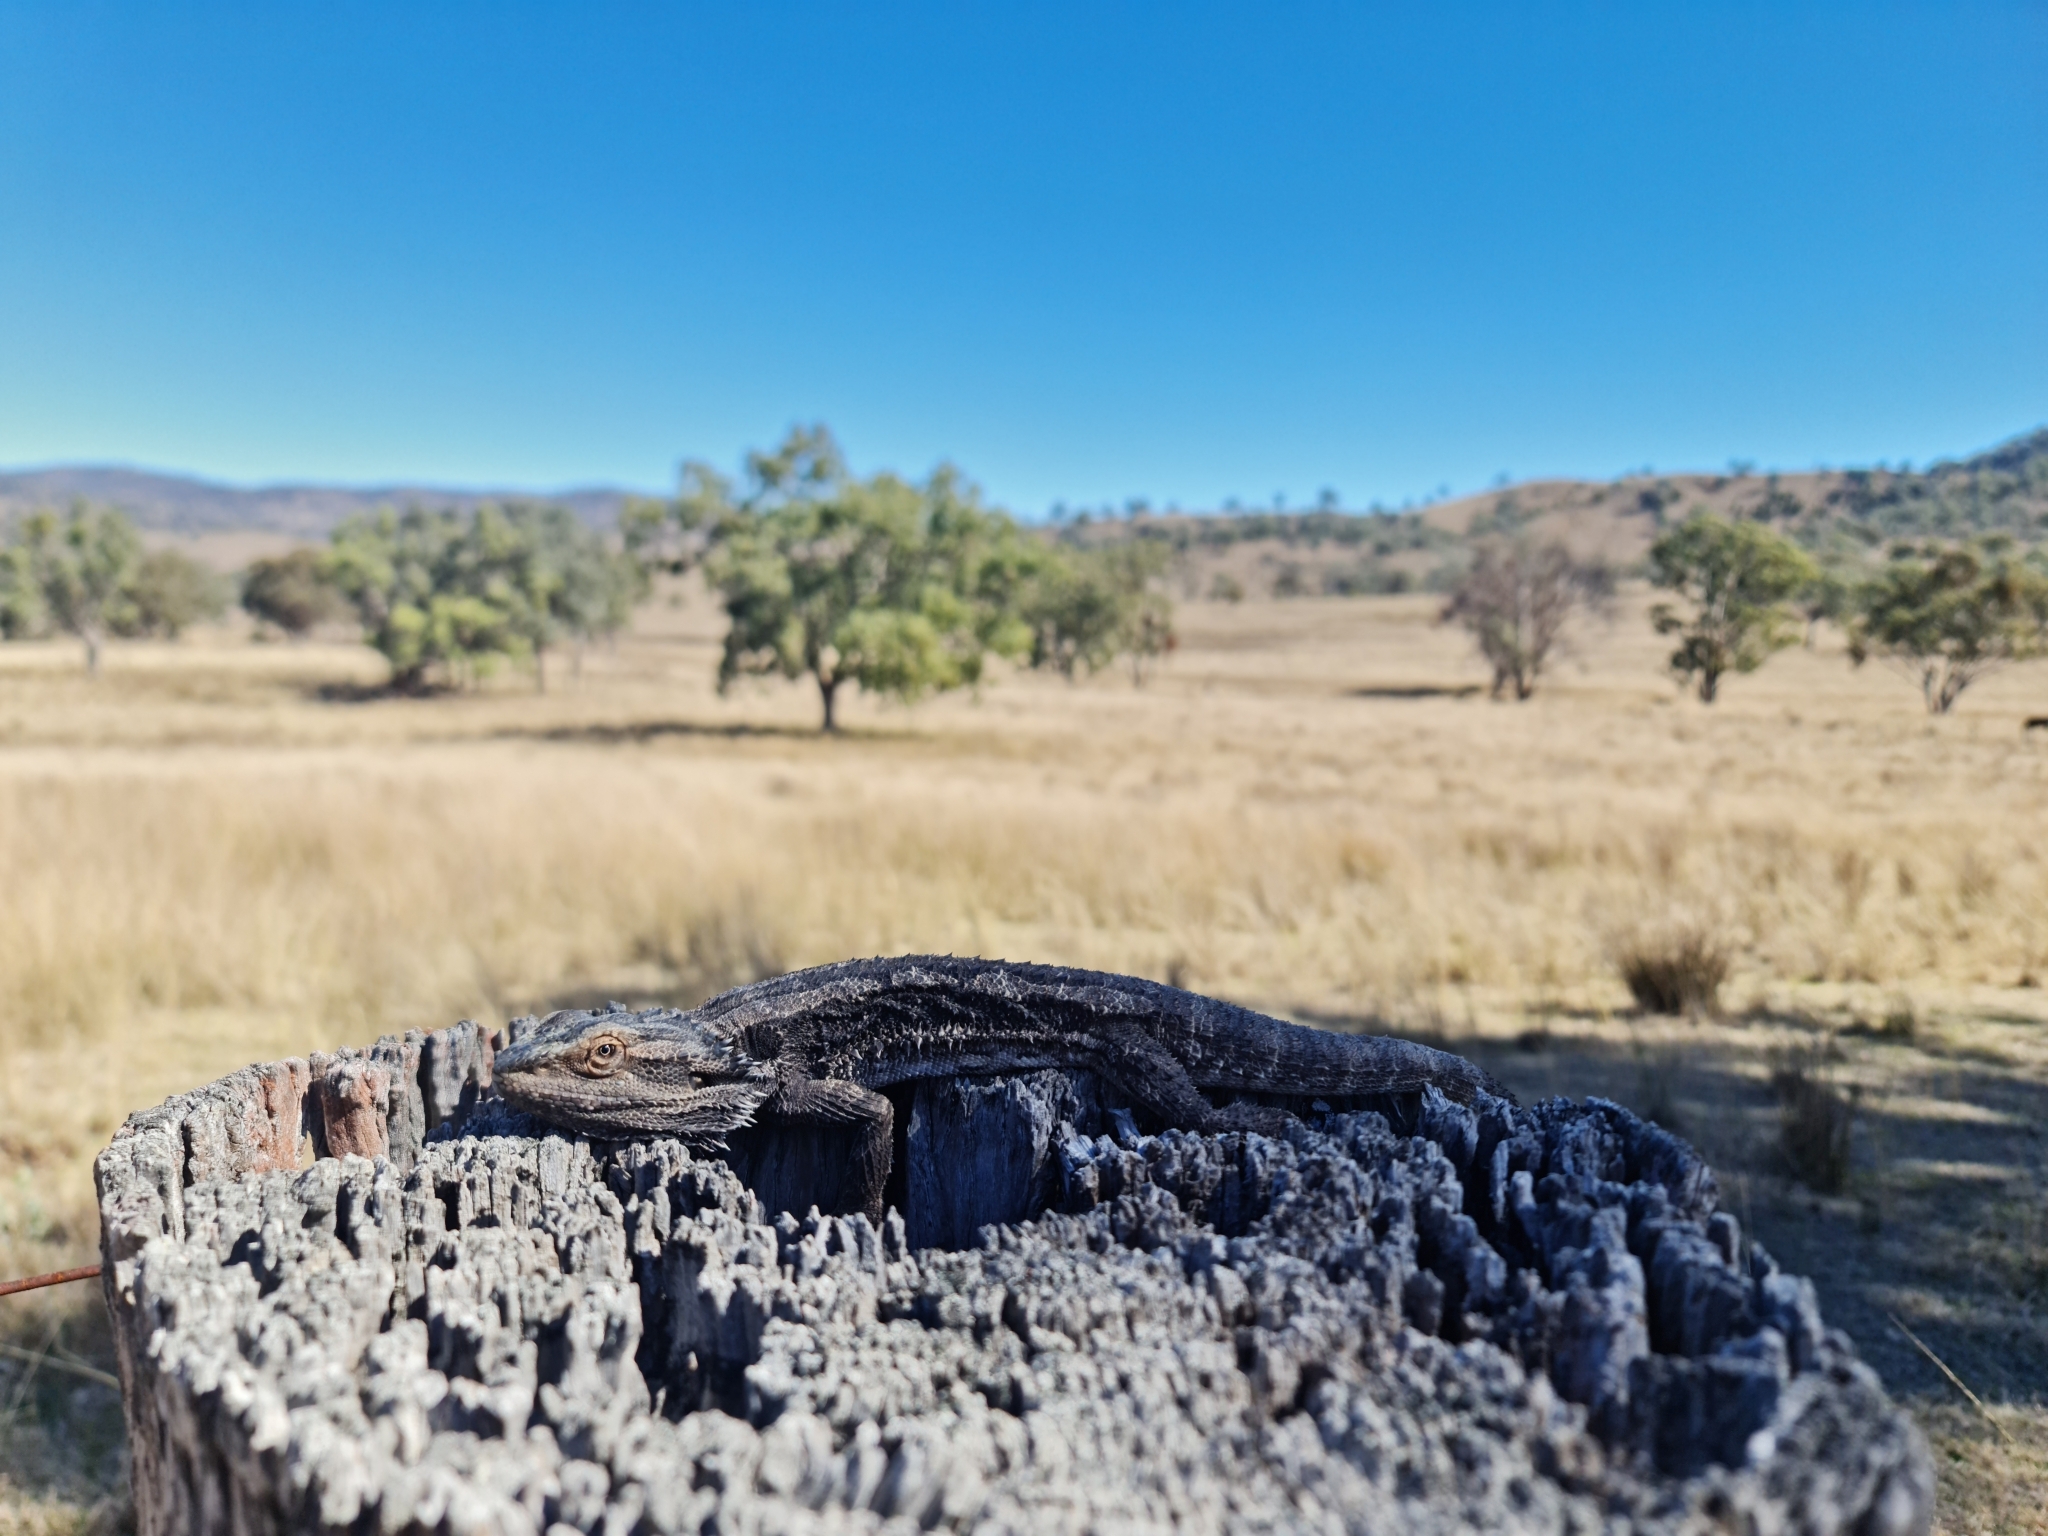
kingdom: Animalia
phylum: Chordata
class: Squamata
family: Agamidae
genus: Pogona
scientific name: Pogona barbata
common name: Bearded dragon
